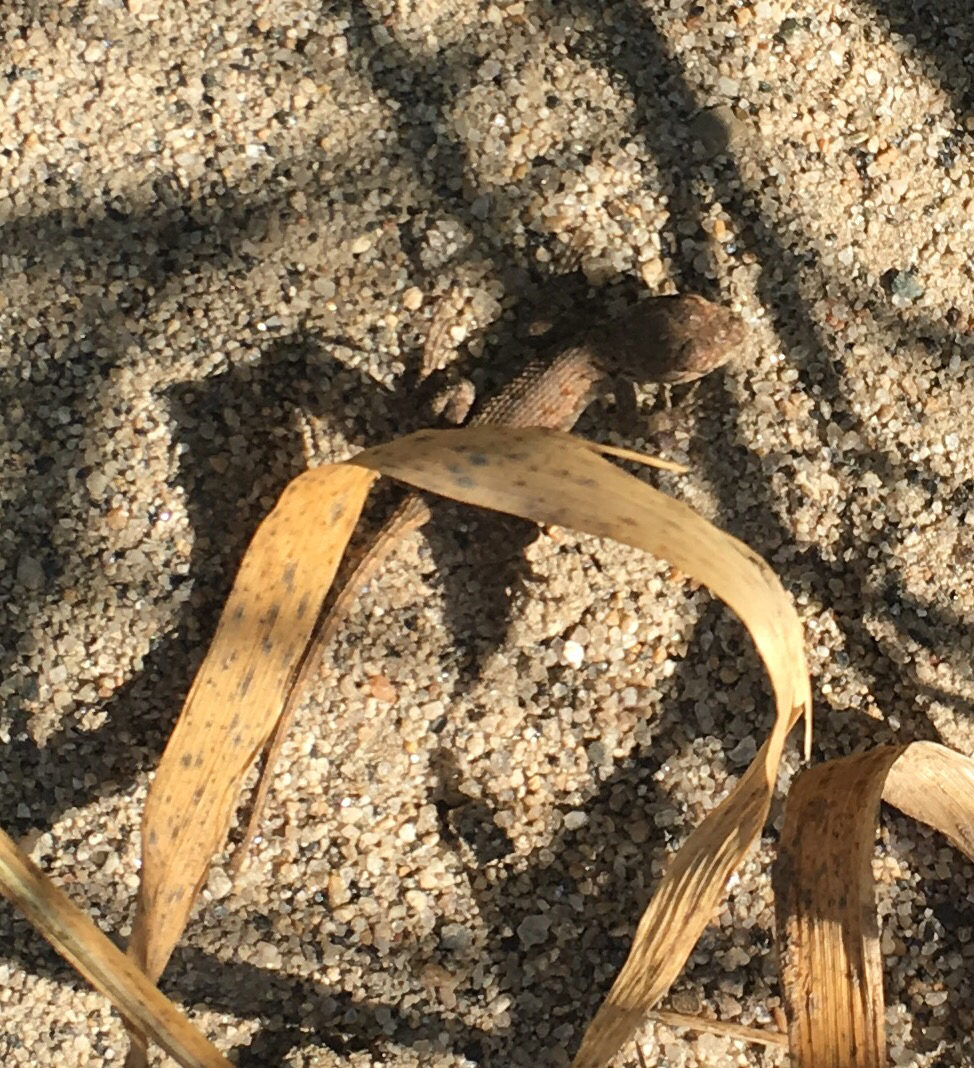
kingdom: Animalia
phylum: Chordata
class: Squamata
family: Phrynosomatidae
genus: Sceloporus
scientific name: Sceloporus occidentalis
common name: Western fence lizard
